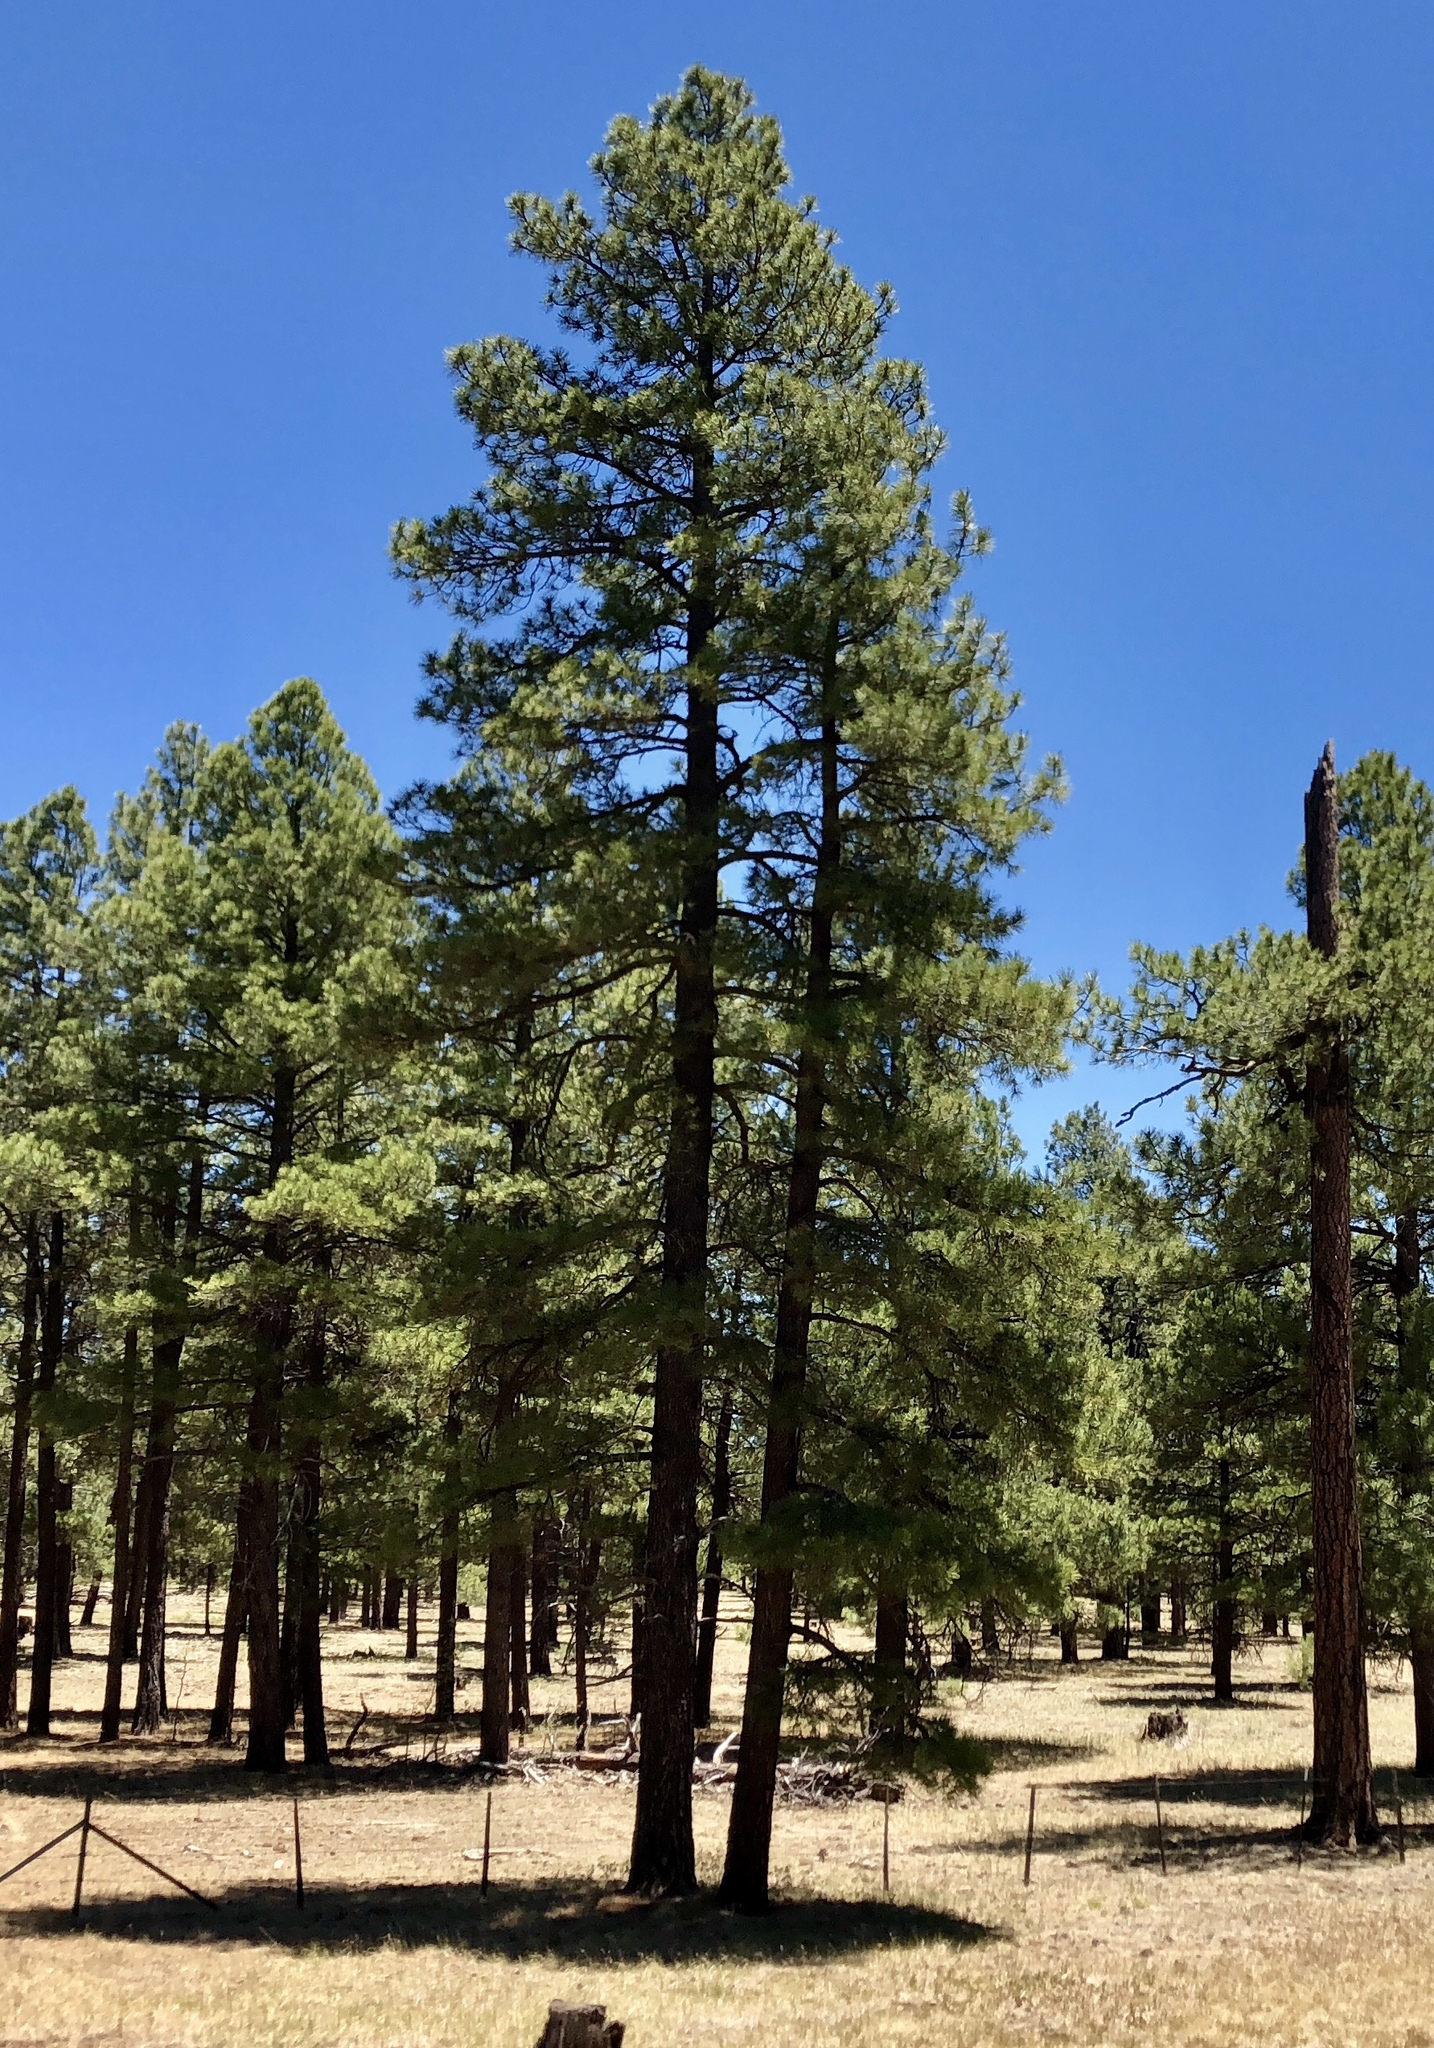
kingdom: Plantae
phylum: Tracheophyta
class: Pinopsida
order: Pinales
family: Pinaceae
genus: Pinus
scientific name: Pinus ponderosa
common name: Western yellow-pine
